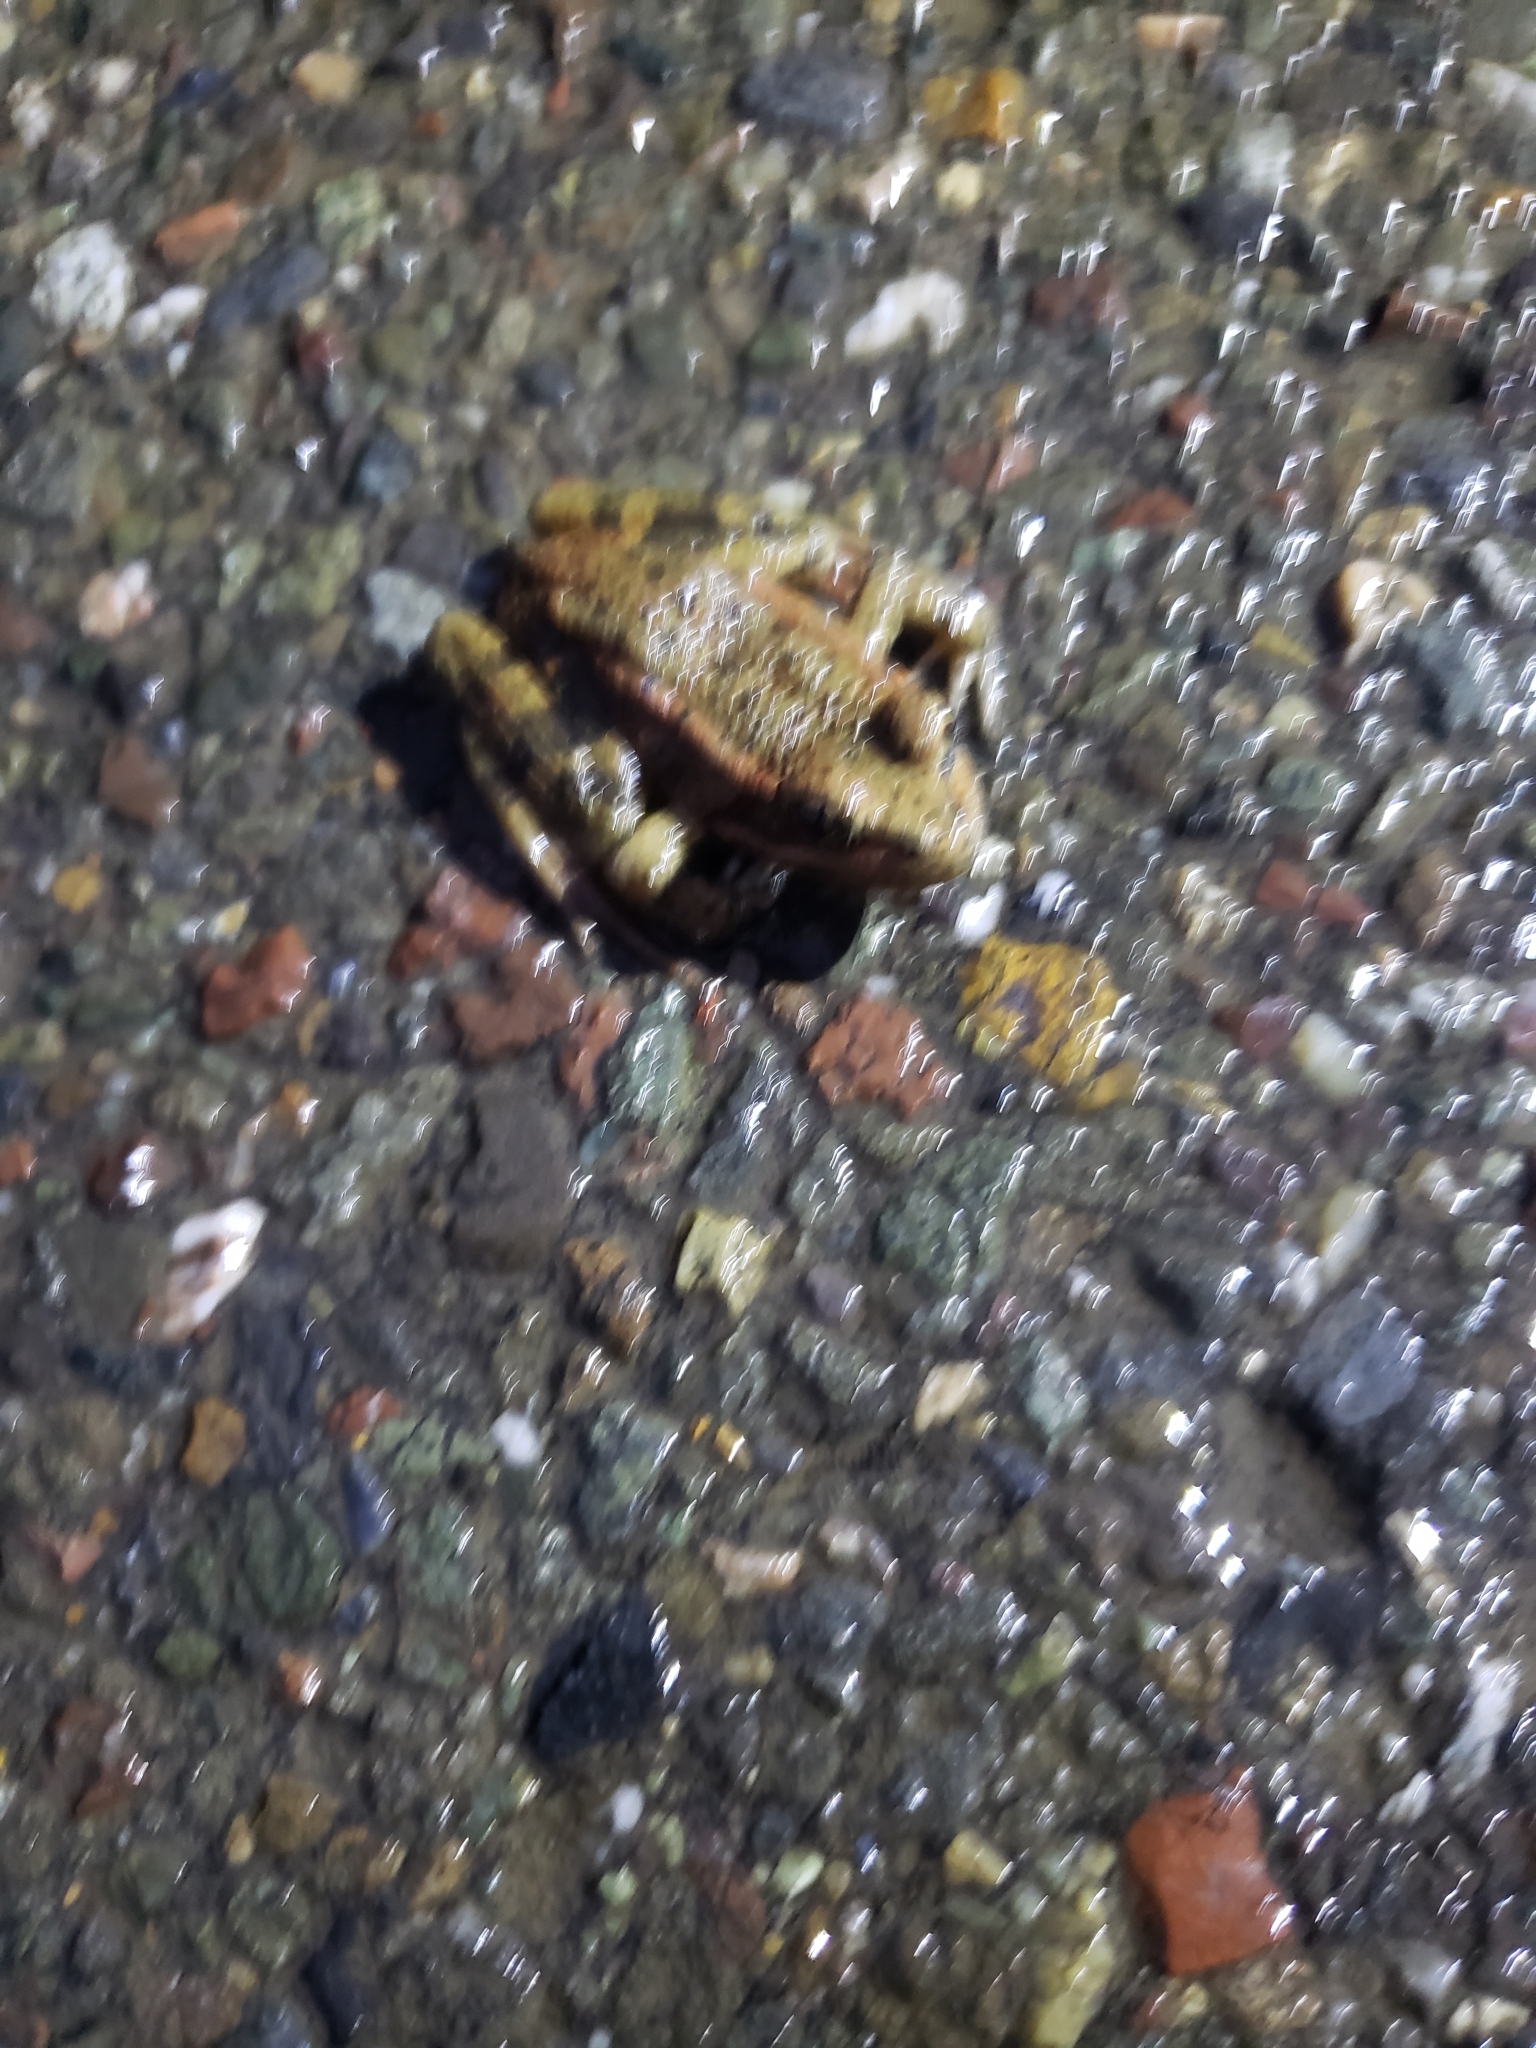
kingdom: Animalia
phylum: Chordata
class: Amphibia
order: Anura
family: Ranidae
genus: Rana
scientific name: Rana draytonii
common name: California red-legged frog
